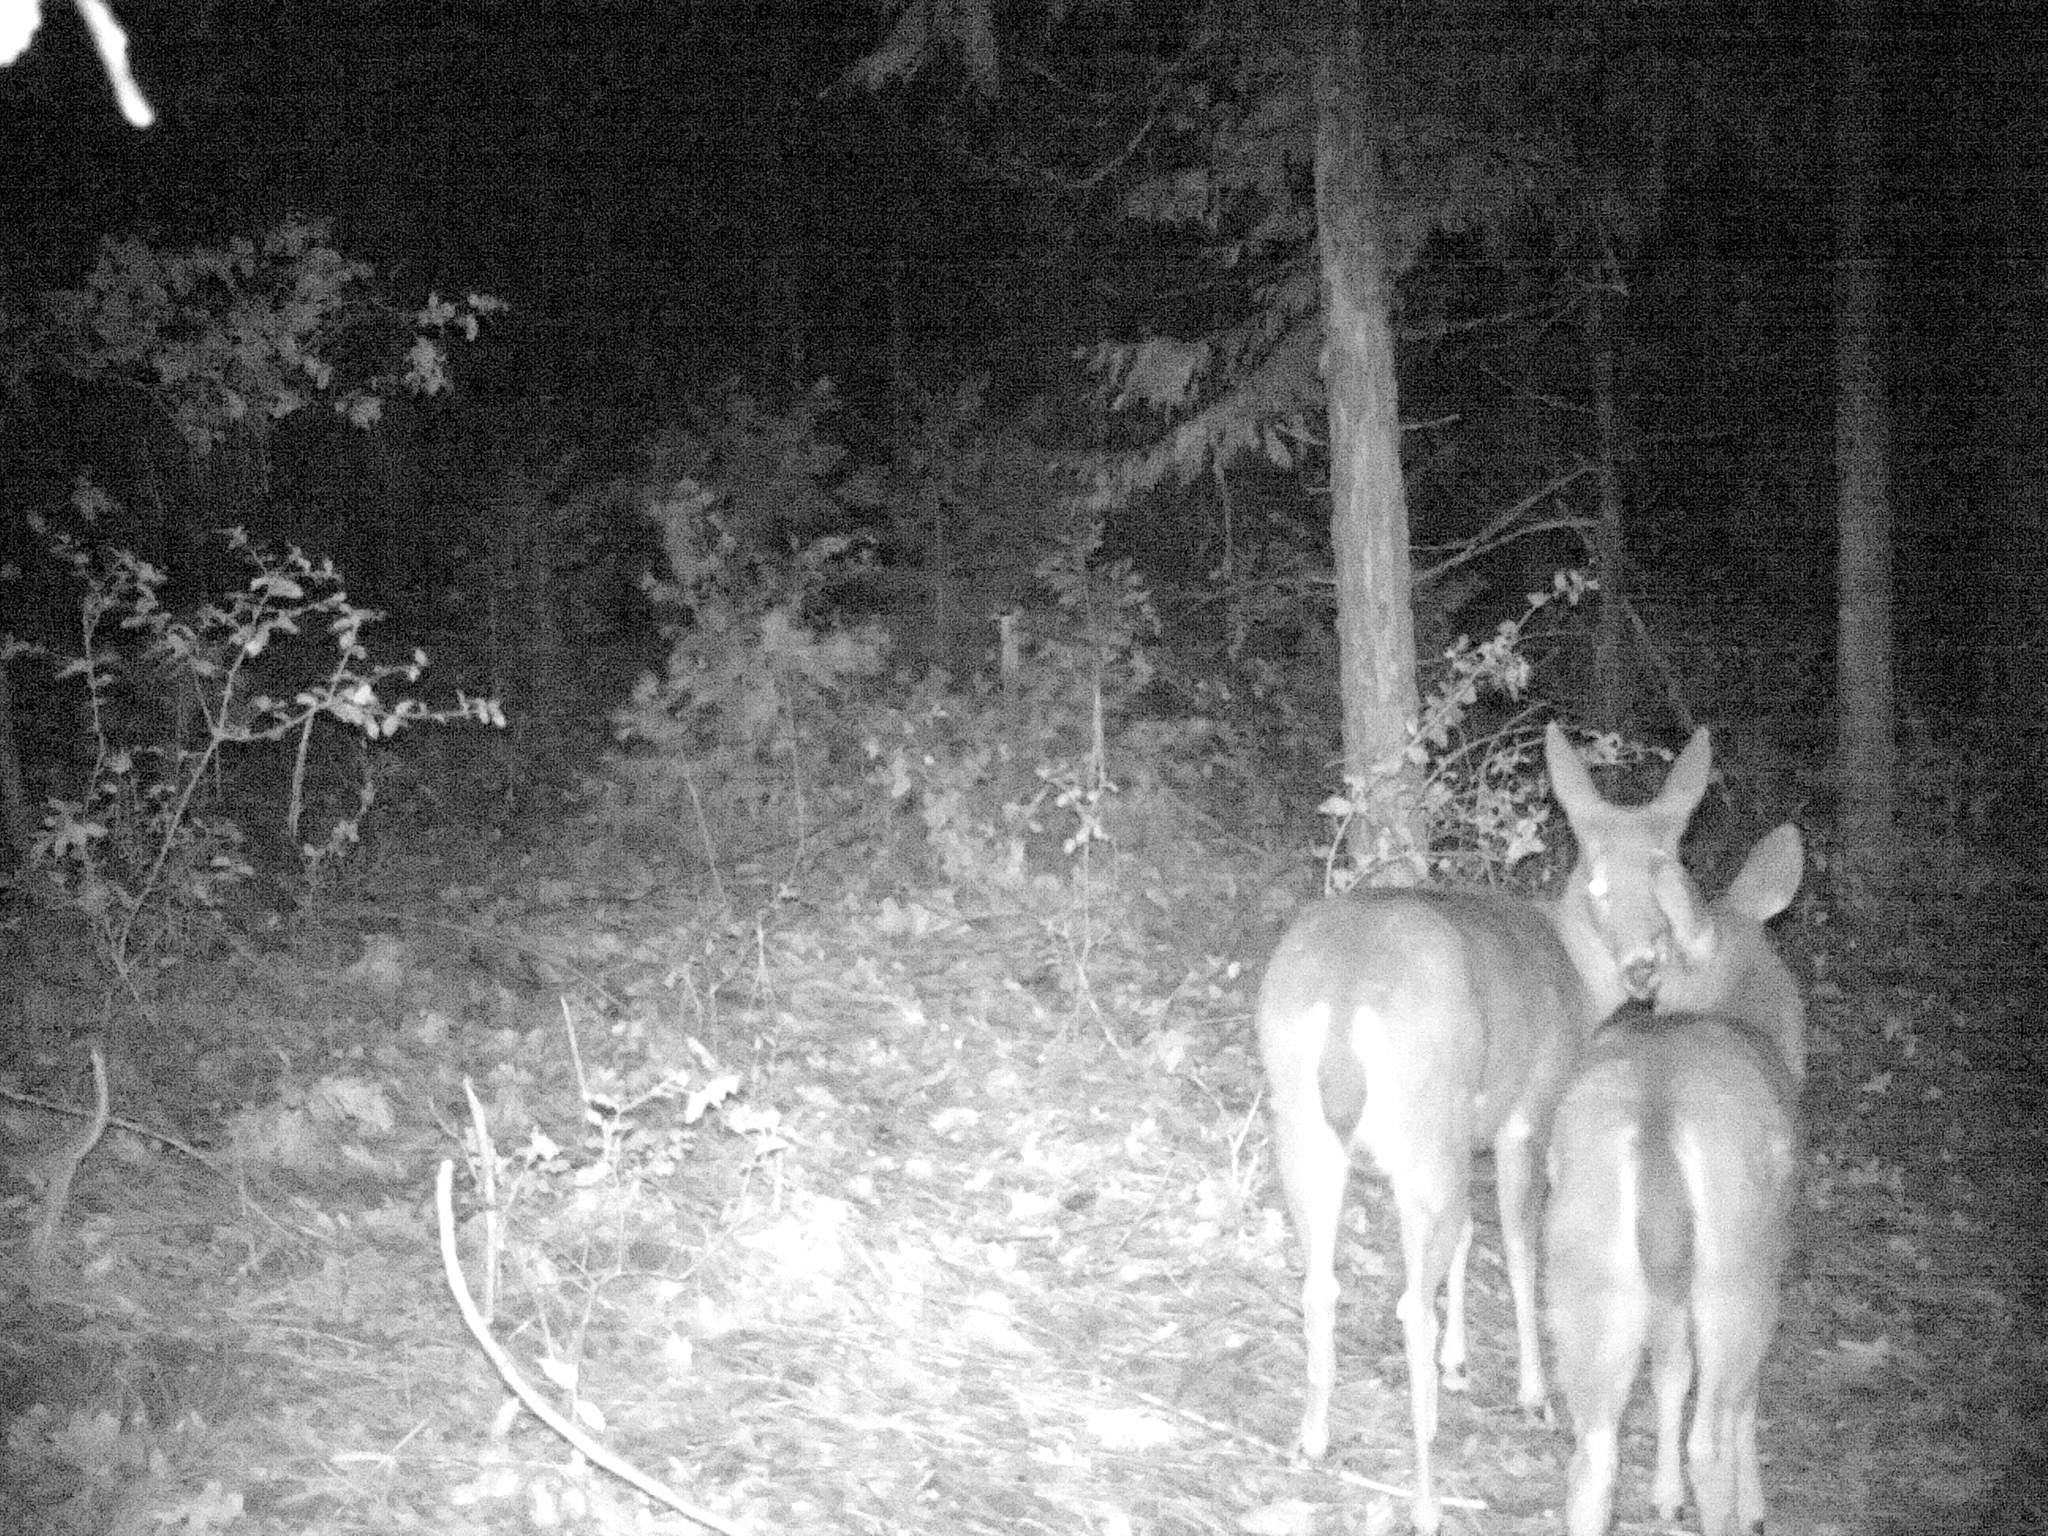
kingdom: Animalia
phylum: Chordata
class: Mammalia
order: Artiodactyla
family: Cervidae
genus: Odocoileus
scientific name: Odocoileus hemionus
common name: Mule deer
